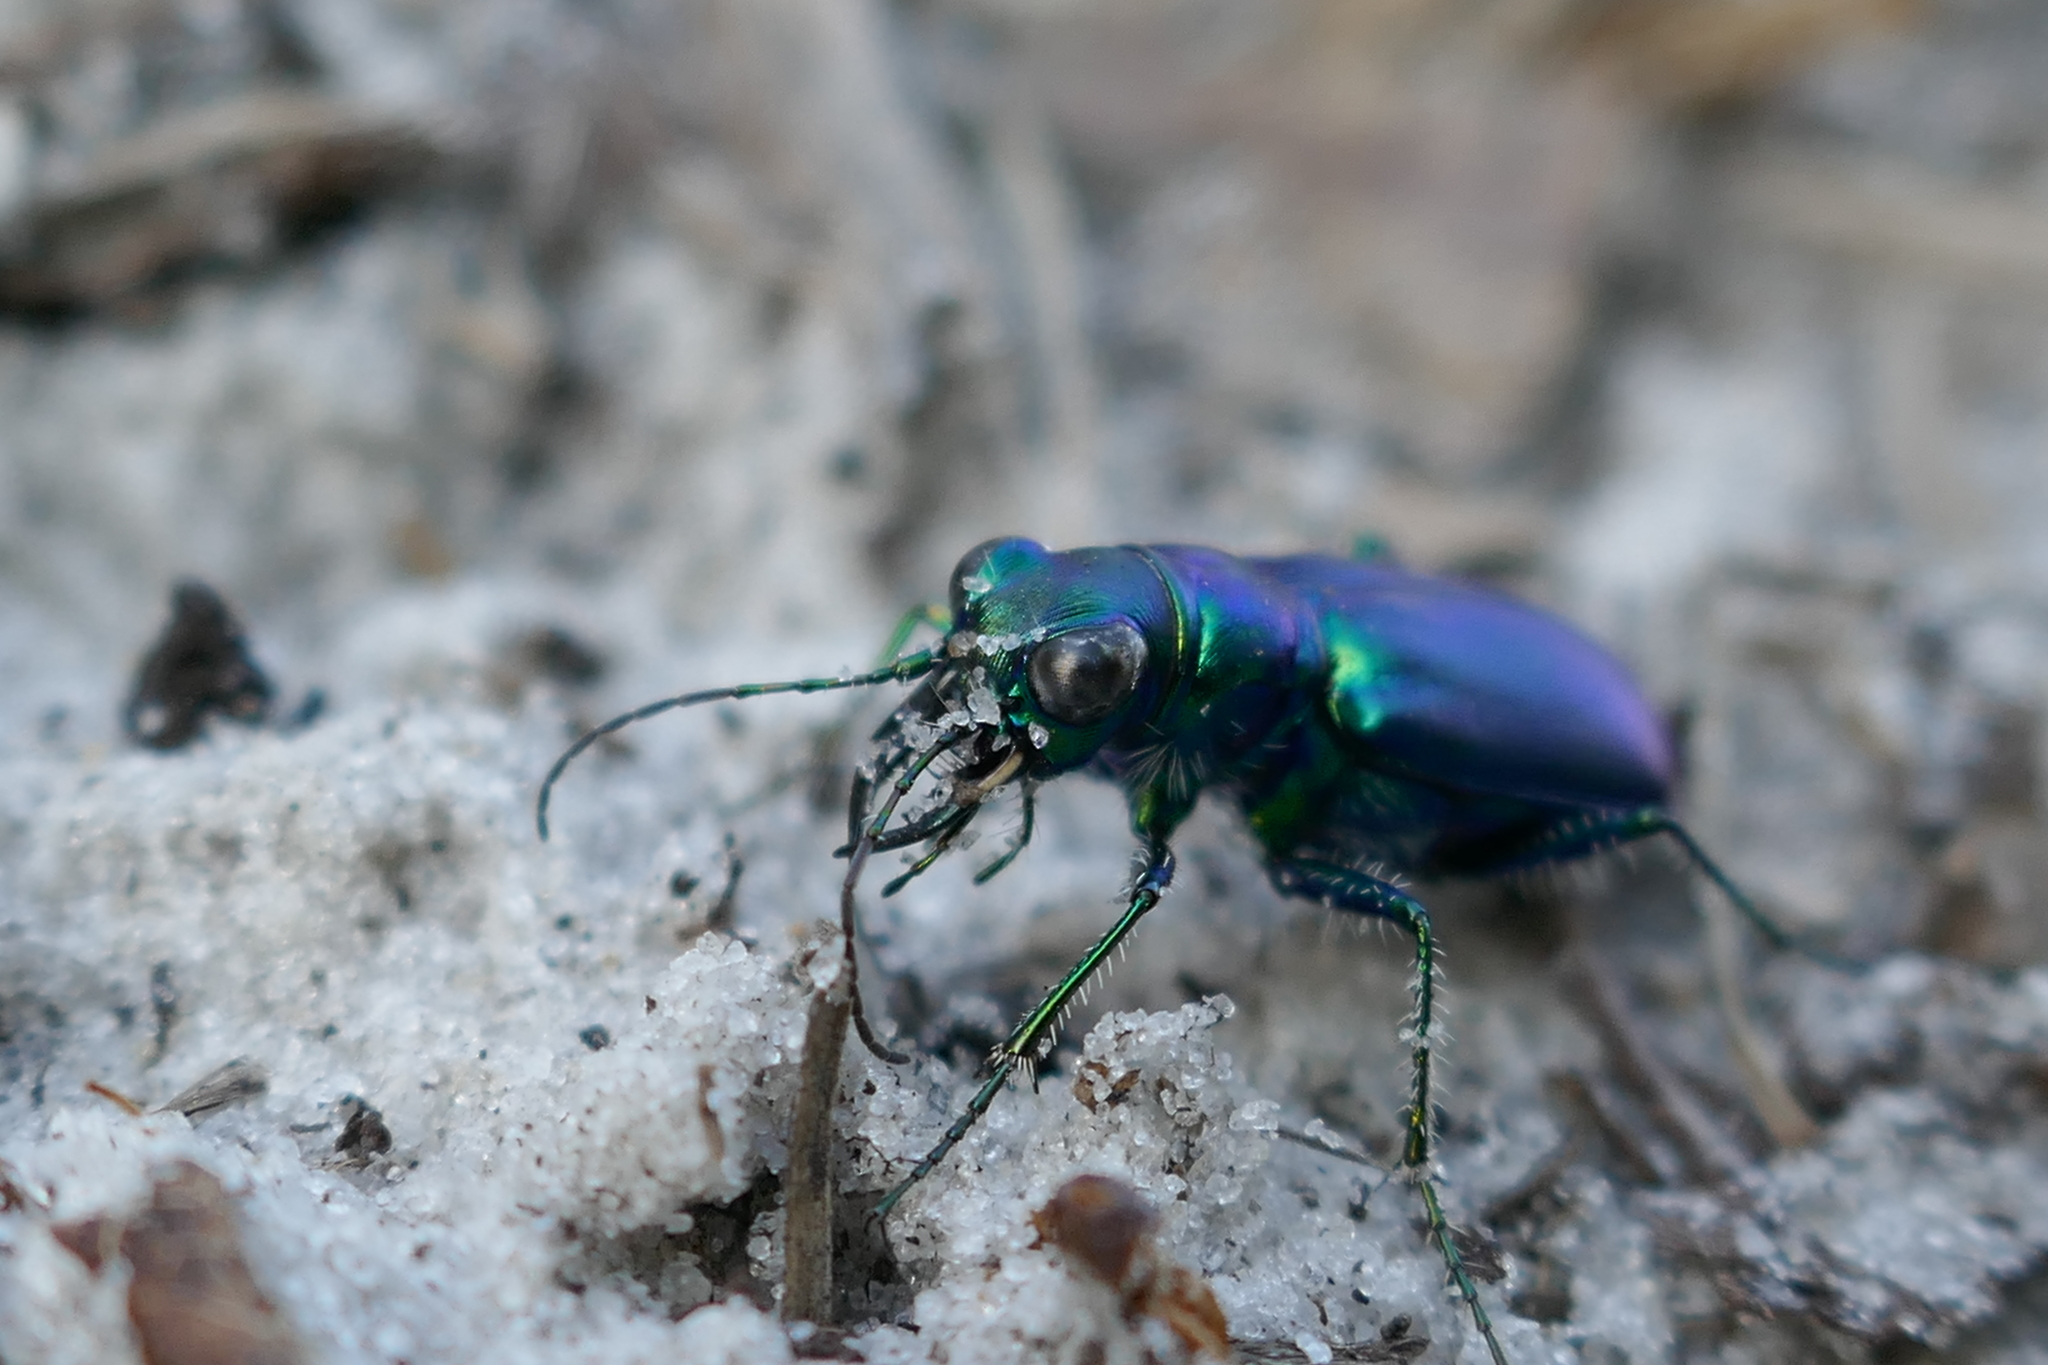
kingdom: Animalia
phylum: Arthropoda
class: Insecta
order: Coleoptera
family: Carabidae
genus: Cicindela
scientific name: Cicindela scutellaris
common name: Festive tiger beetle
